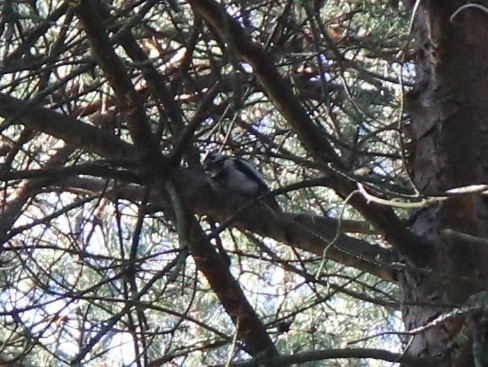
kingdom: Animalia
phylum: Chordata
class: Aves
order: Piciformes
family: Picidae
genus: Dendrocopos
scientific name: Dendrocopos major
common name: Great spotted woodpecker
